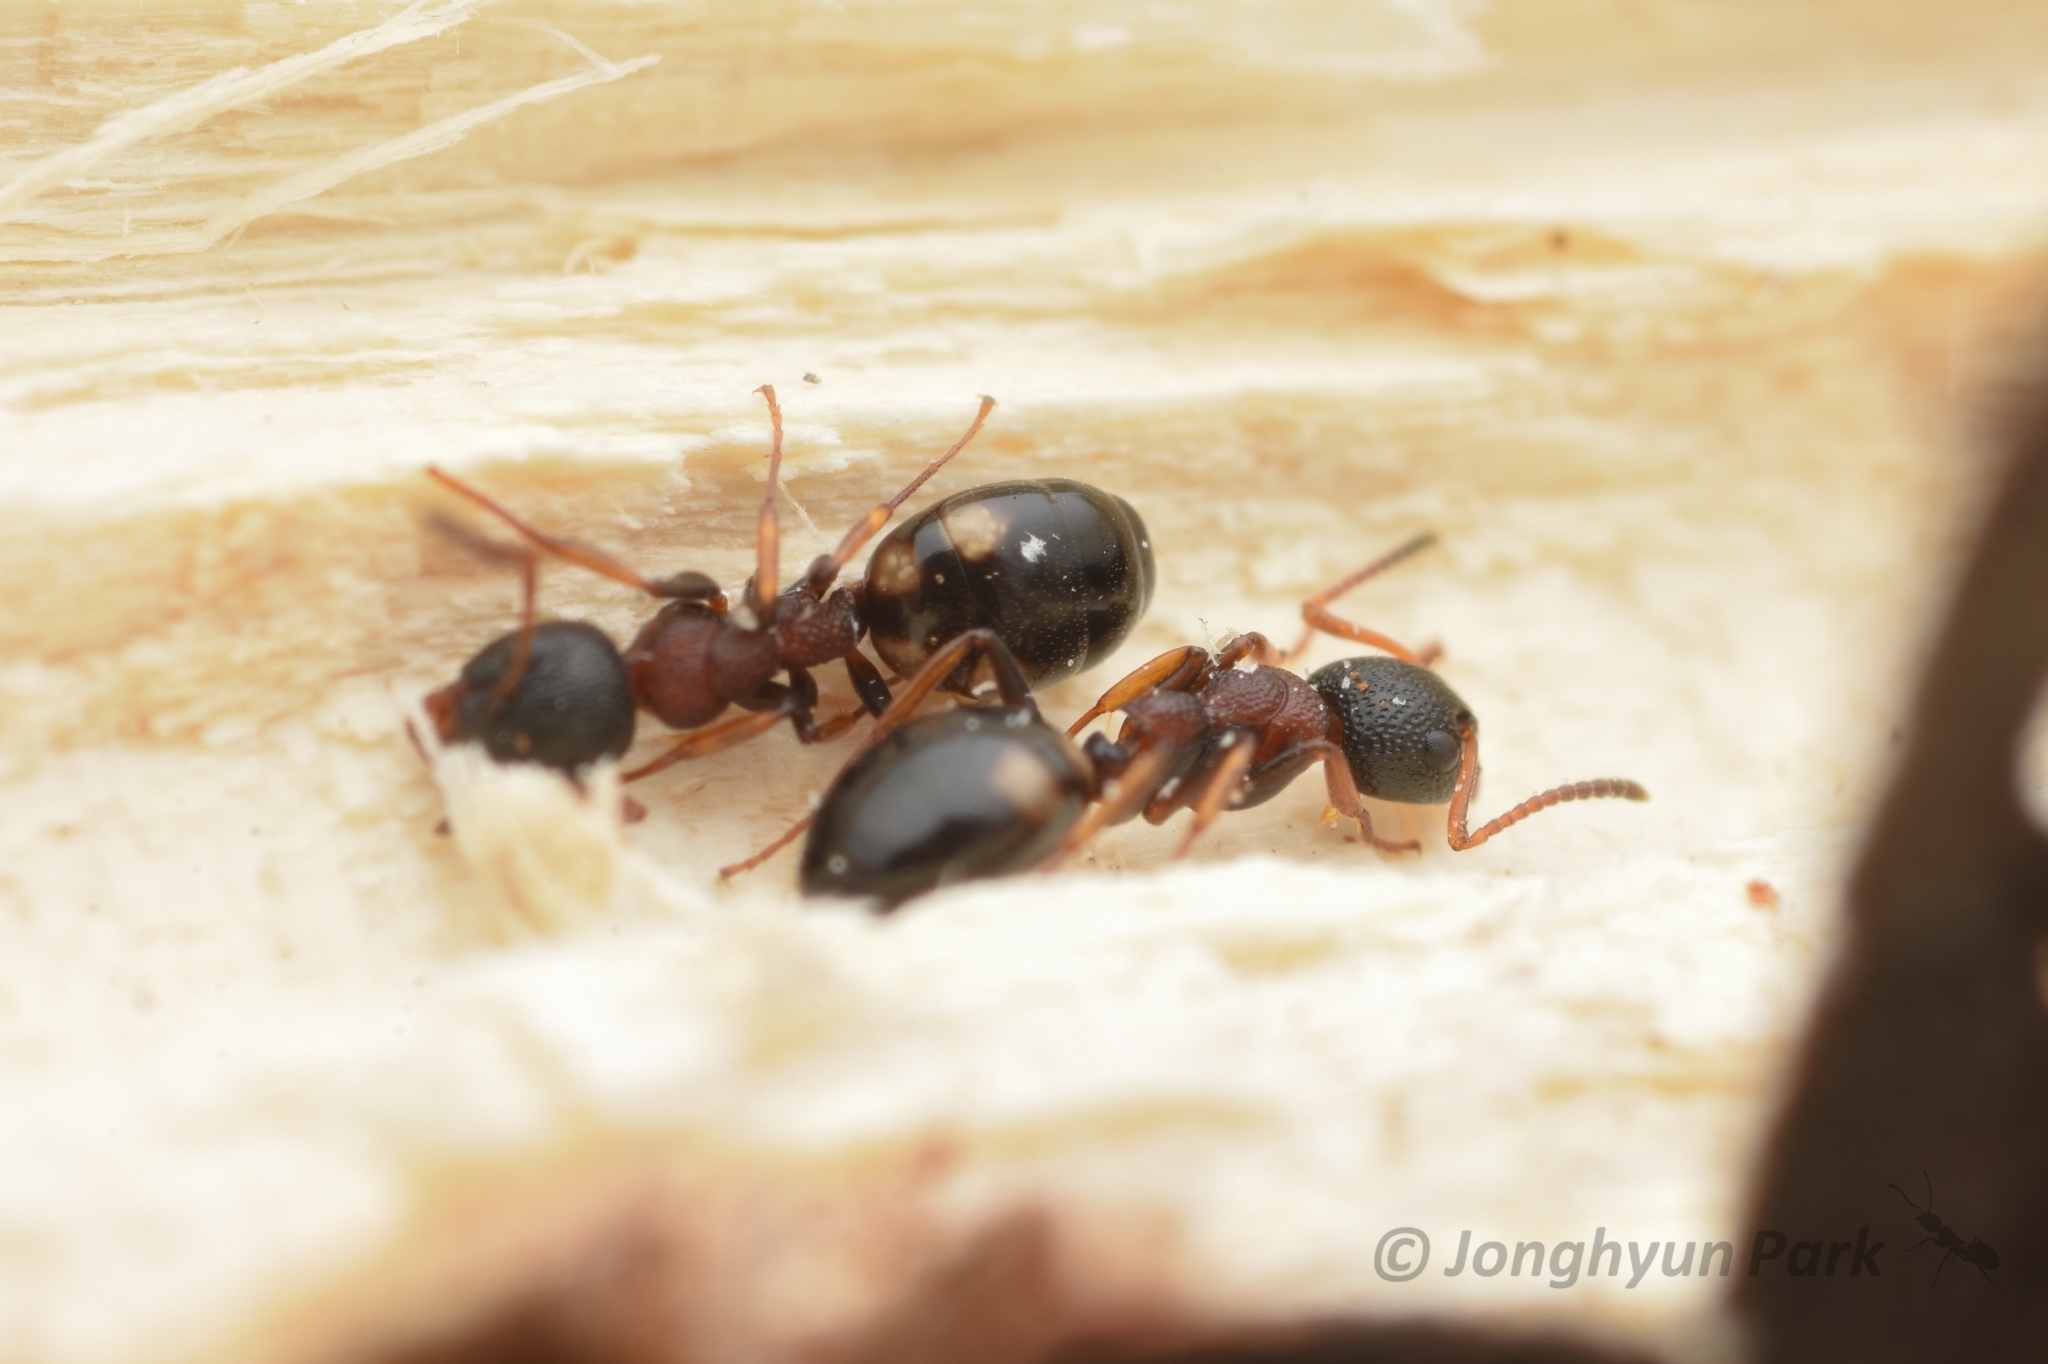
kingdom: Animalia
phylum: Arthropoda
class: Insecta
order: Hymenoptera
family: Formicidae
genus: Dolichoderus
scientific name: Dolichoderus sibiricus
